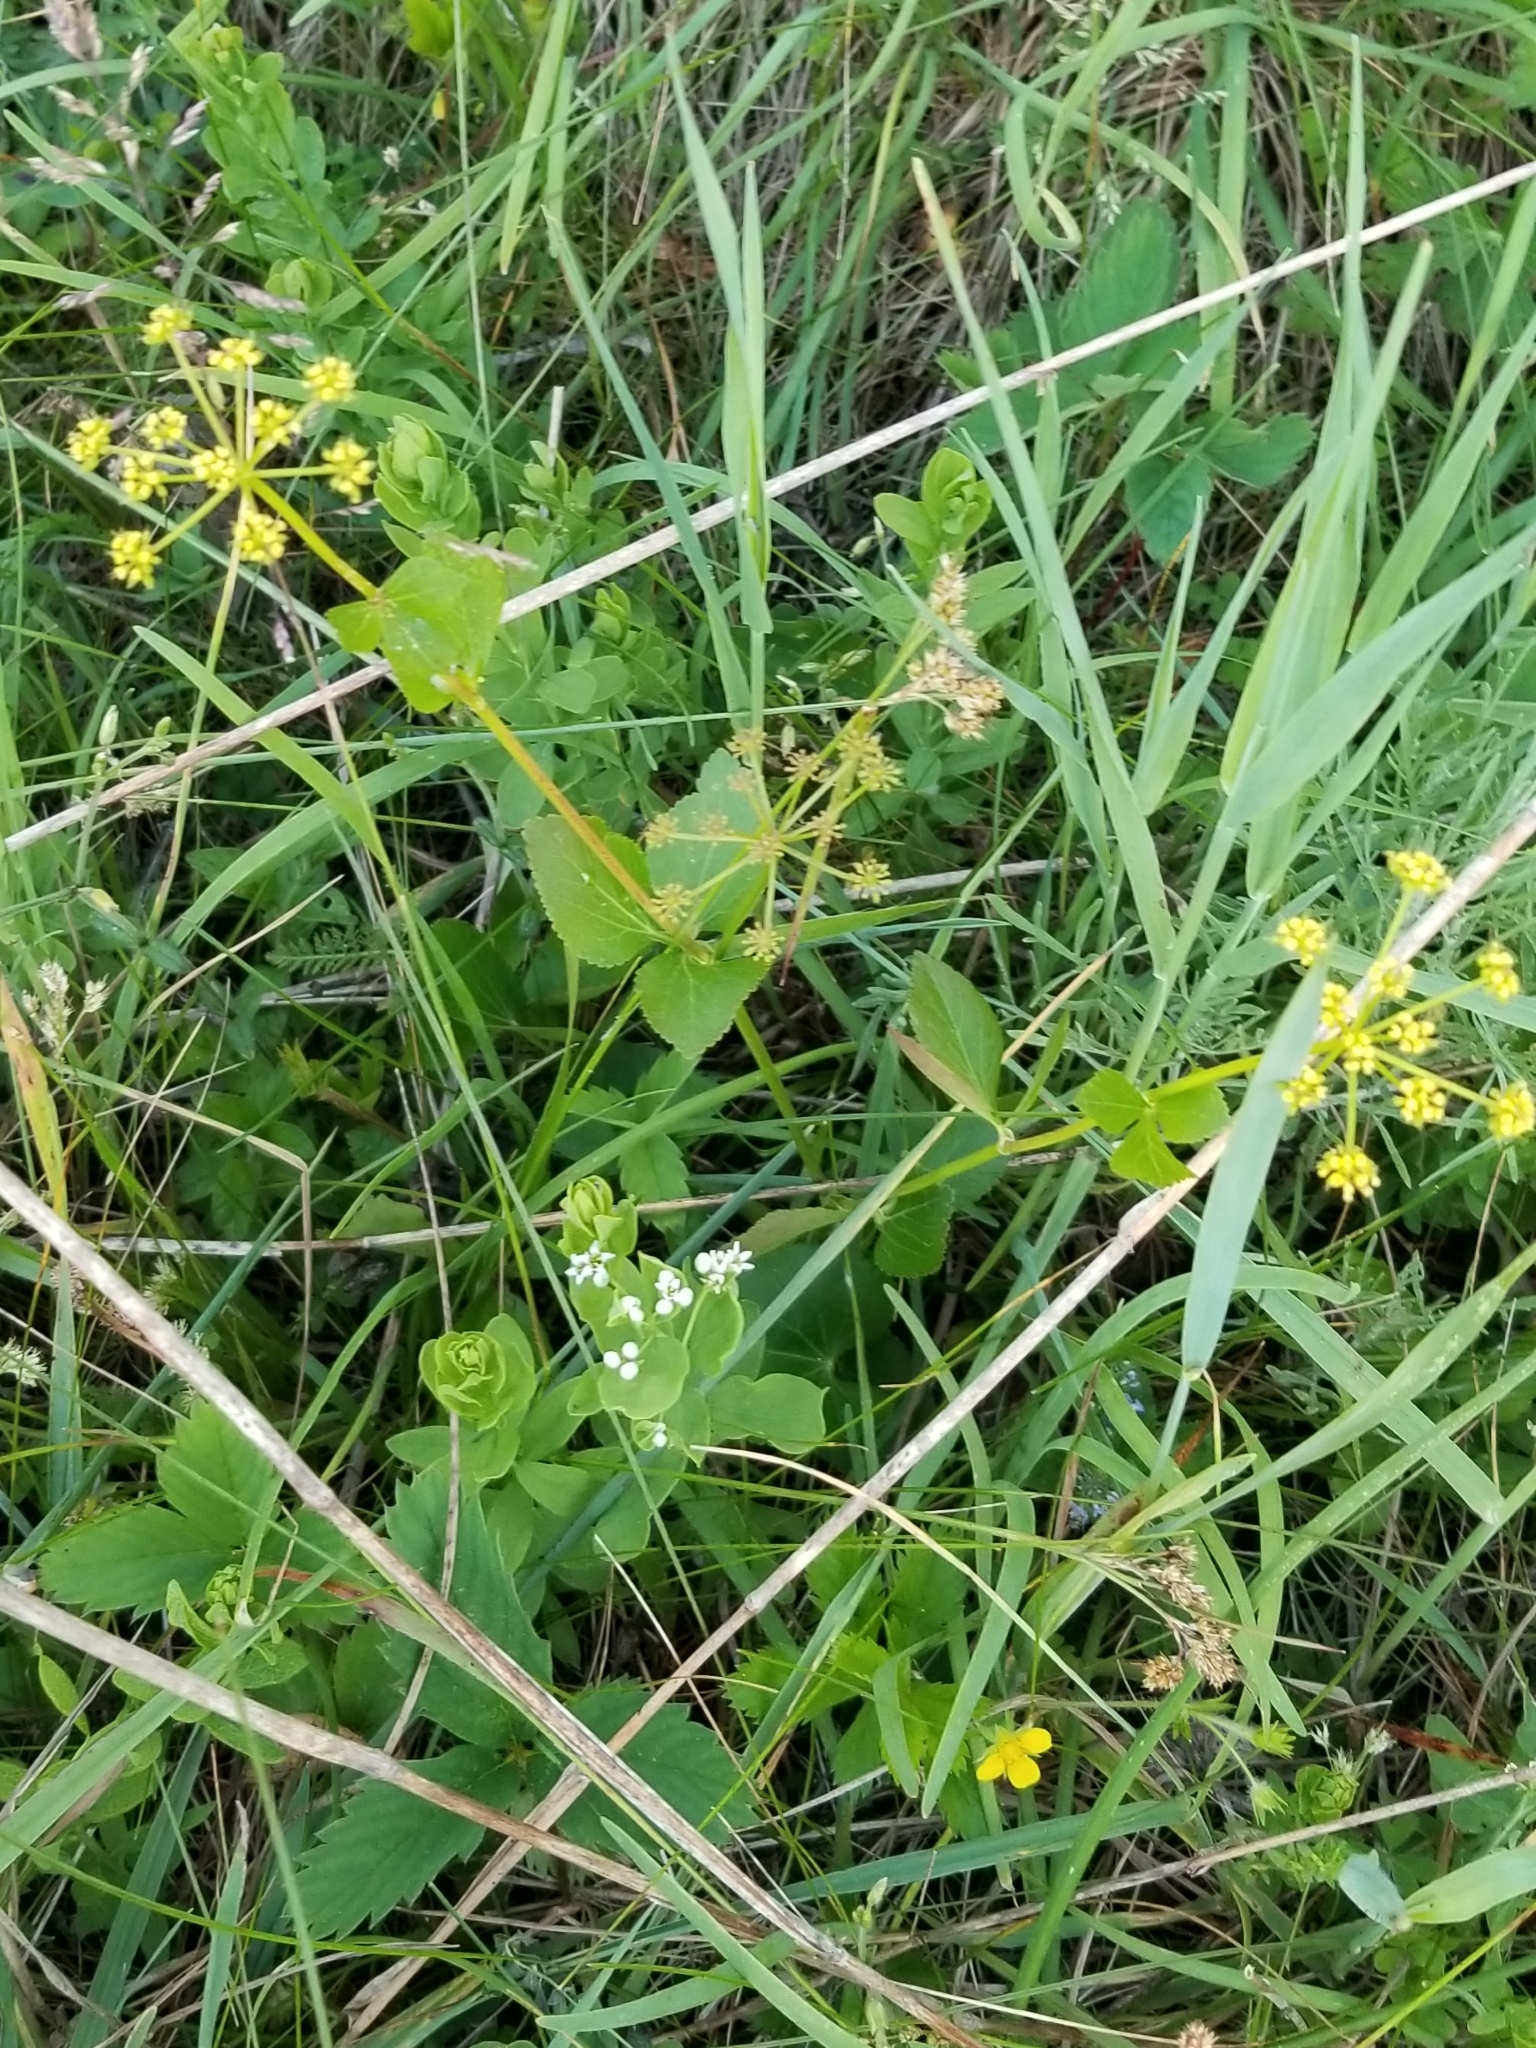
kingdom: Plantae
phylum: Tracheophyta
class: Magnoliopsida
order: Apiales
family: Apiaceae
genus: Zizia
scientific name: Zizia aptera
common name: Heart-leaved alexanders
